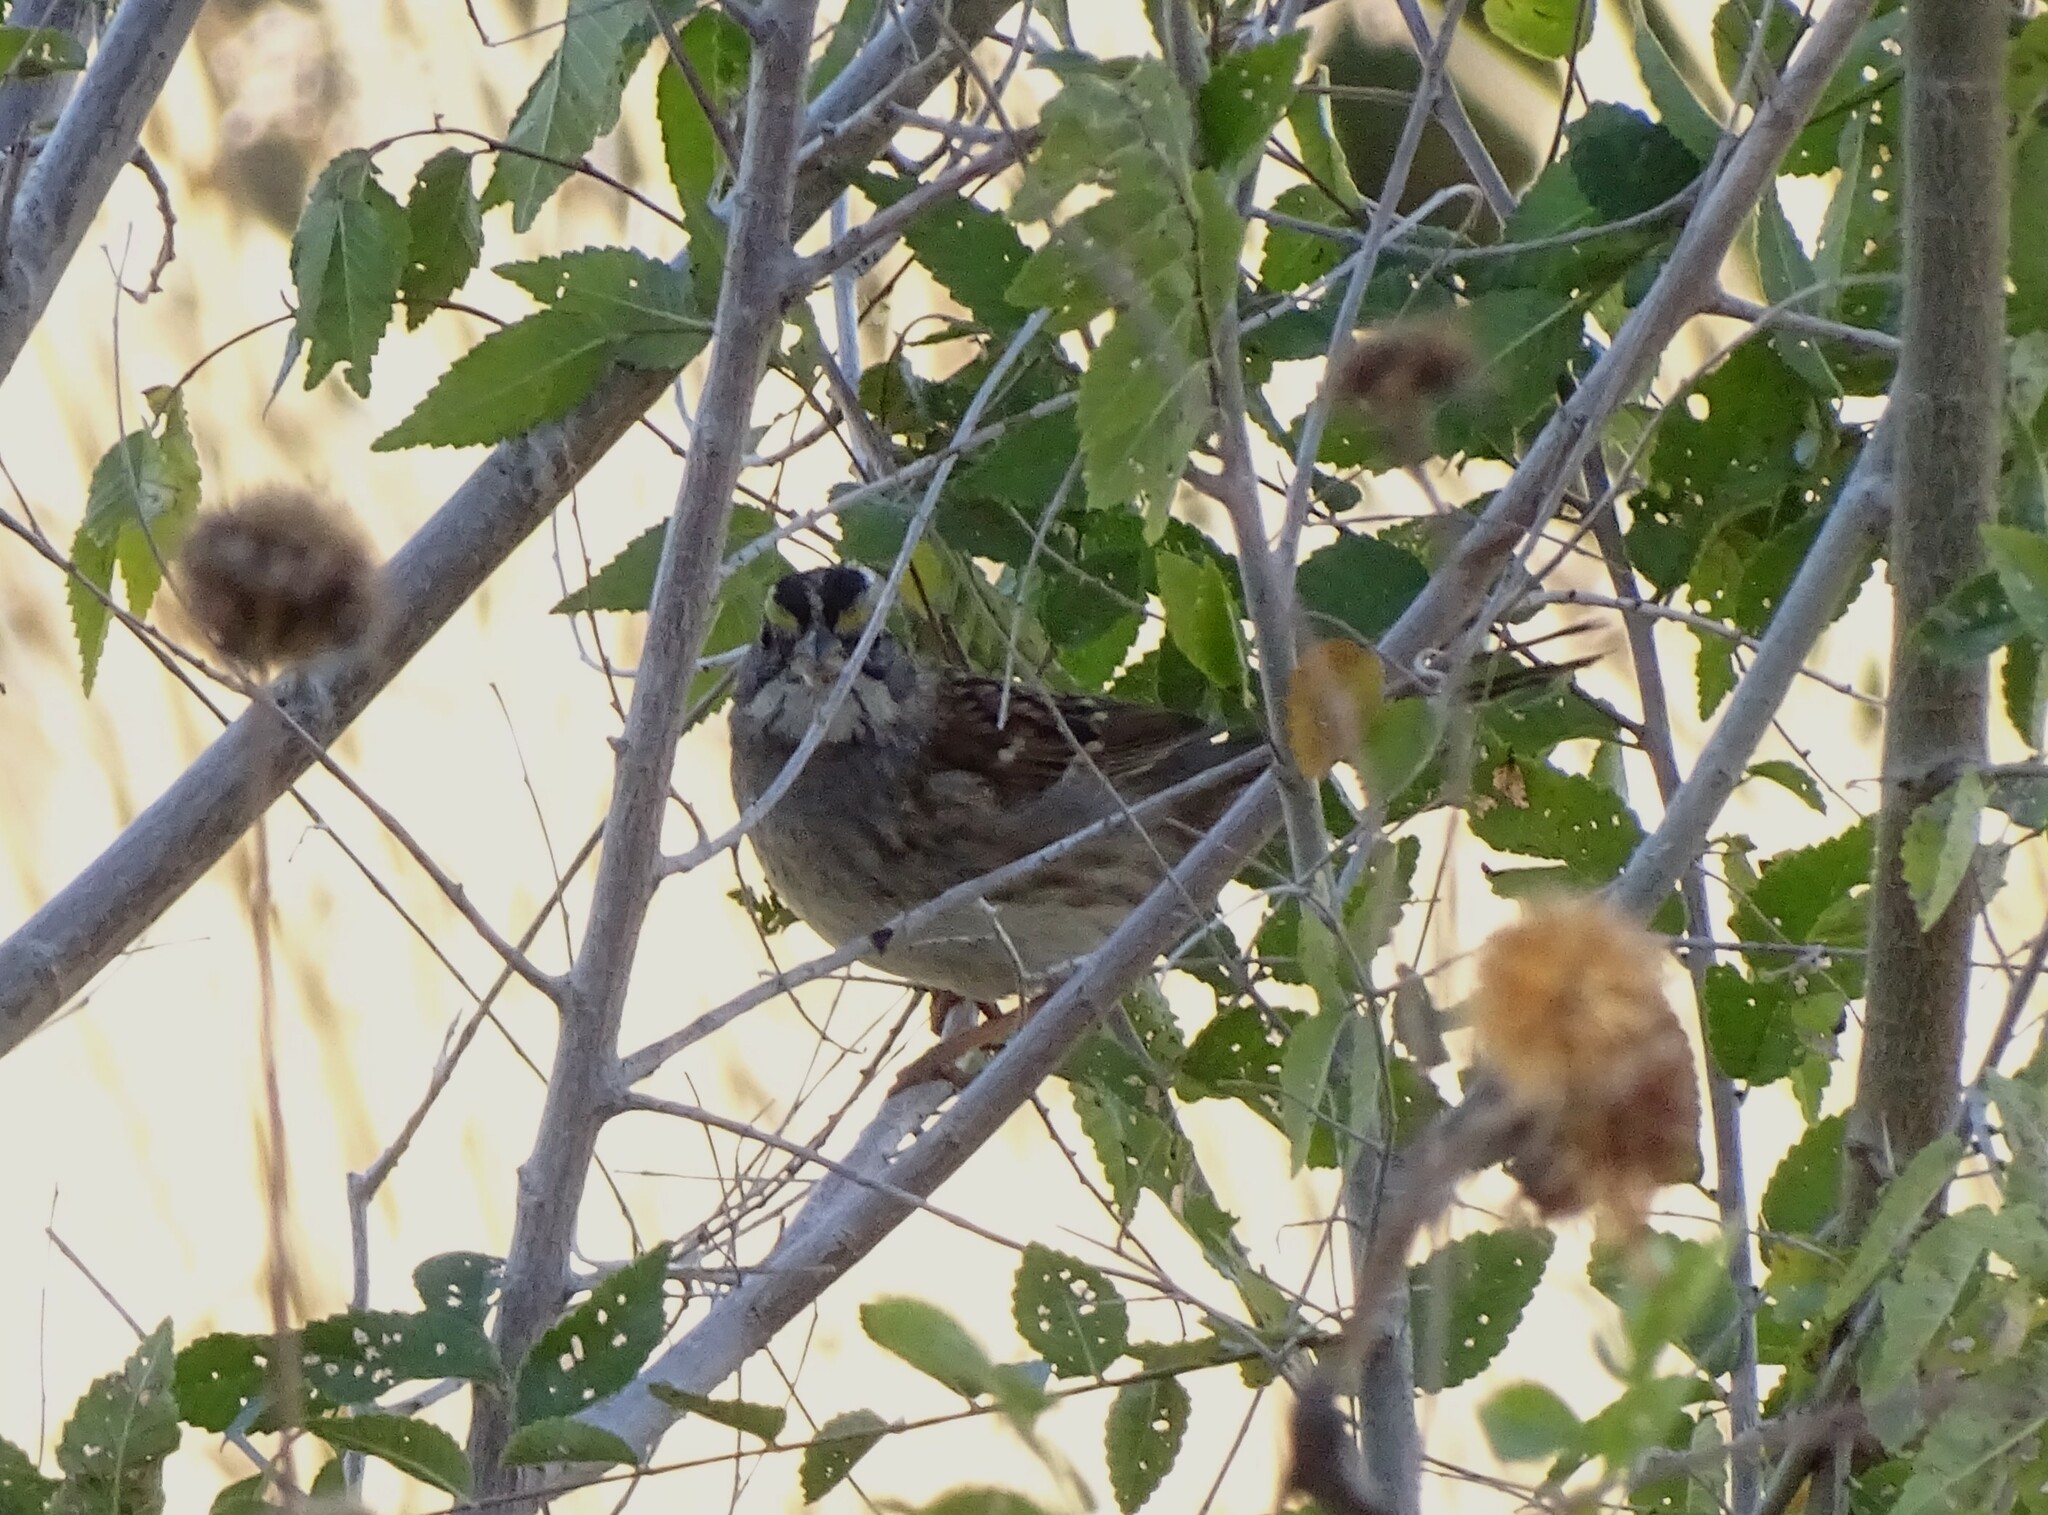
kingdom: Animalia
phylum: Chordata
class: Aves
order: Passeriformes
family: Passerellidae
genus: Zonotrichia
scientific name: Zonotrichia albicollis
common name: White-throated sparrow
